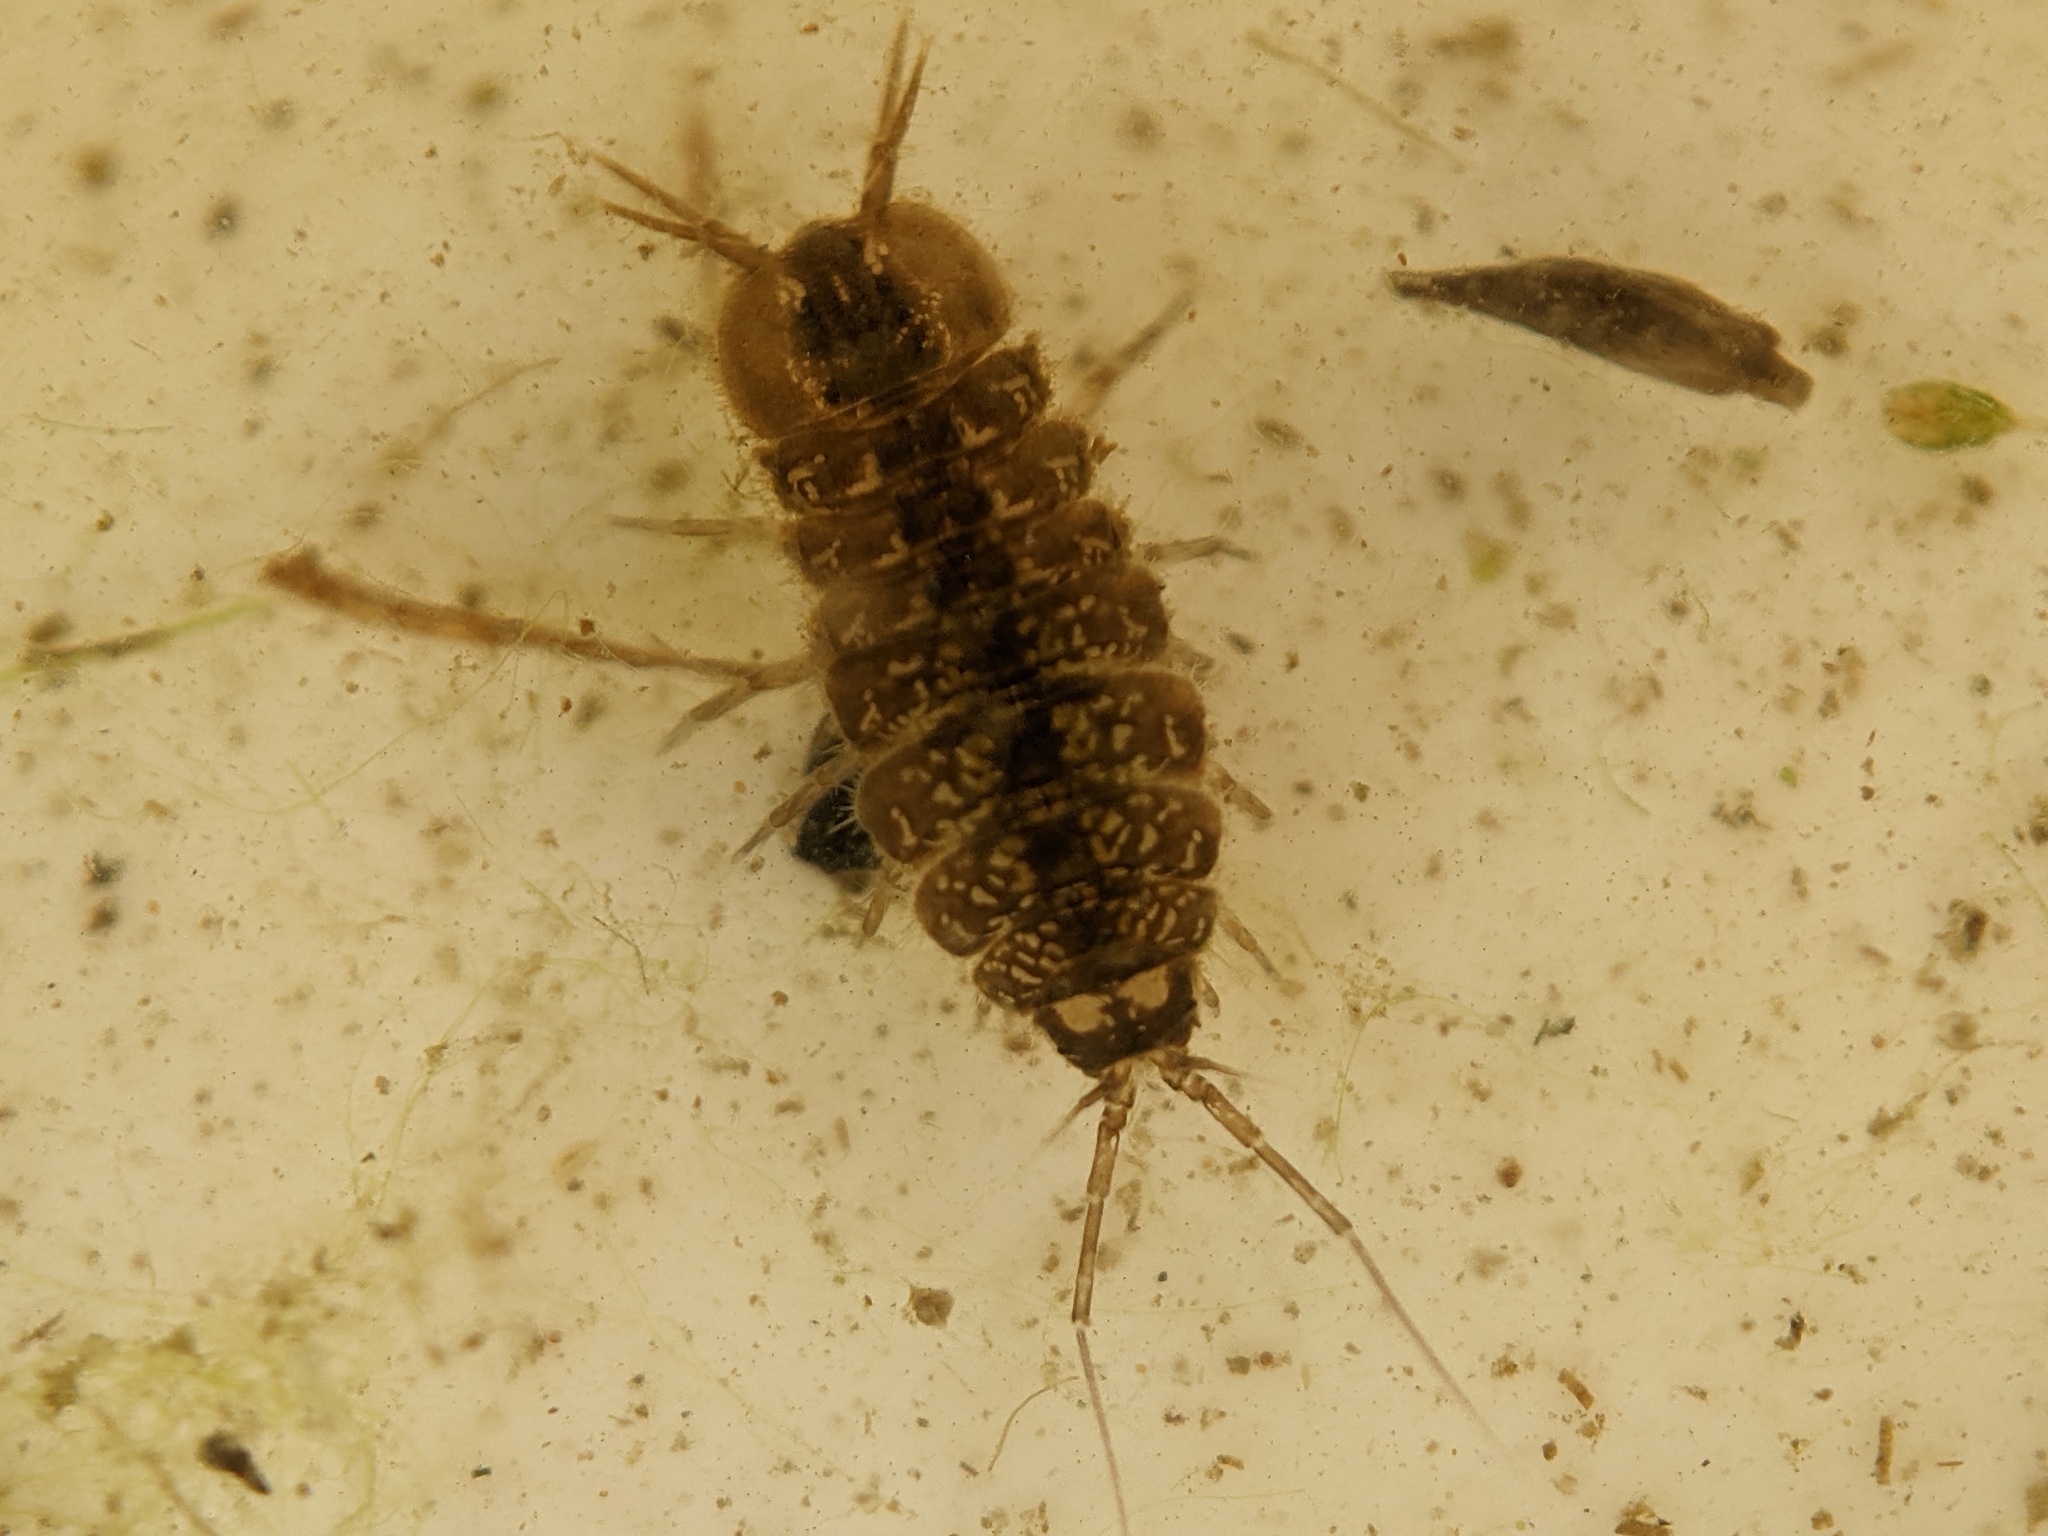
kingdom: Animalia
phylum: Arthropoda
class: Malacostraca
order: Isopoda
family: Asellidae
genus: Asellus
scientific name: Asellus aquaticus
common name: Water hog lice/slaters
